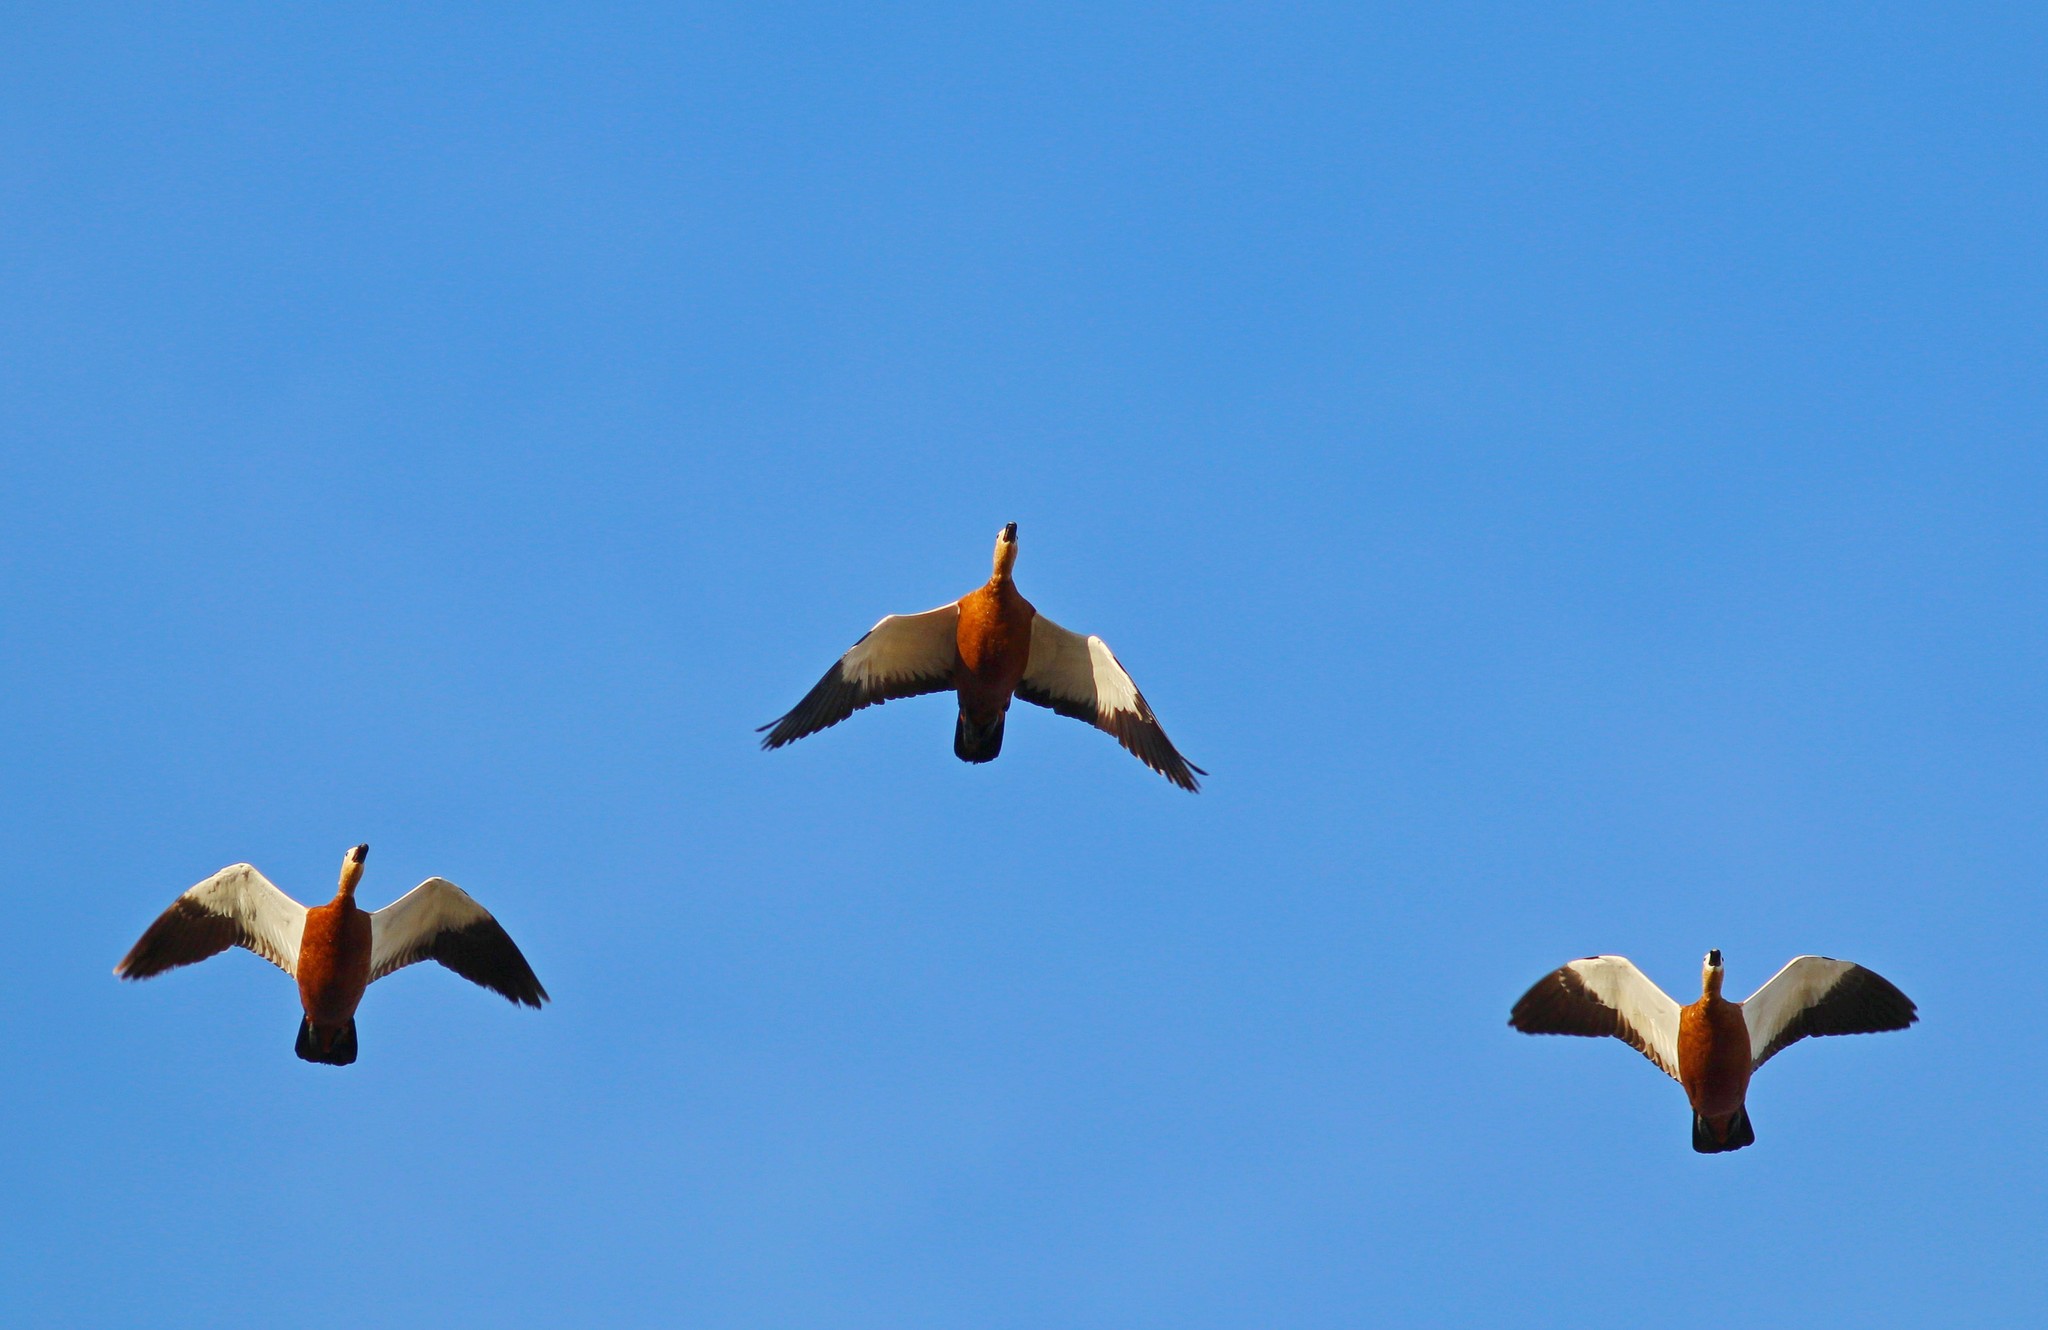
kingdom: Animalia
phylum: Chordata
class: Aves
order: Anseriformes
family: Anatidae
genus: Tadorna
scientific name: Tadorna ferruginea
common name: Ruddy shelduck
